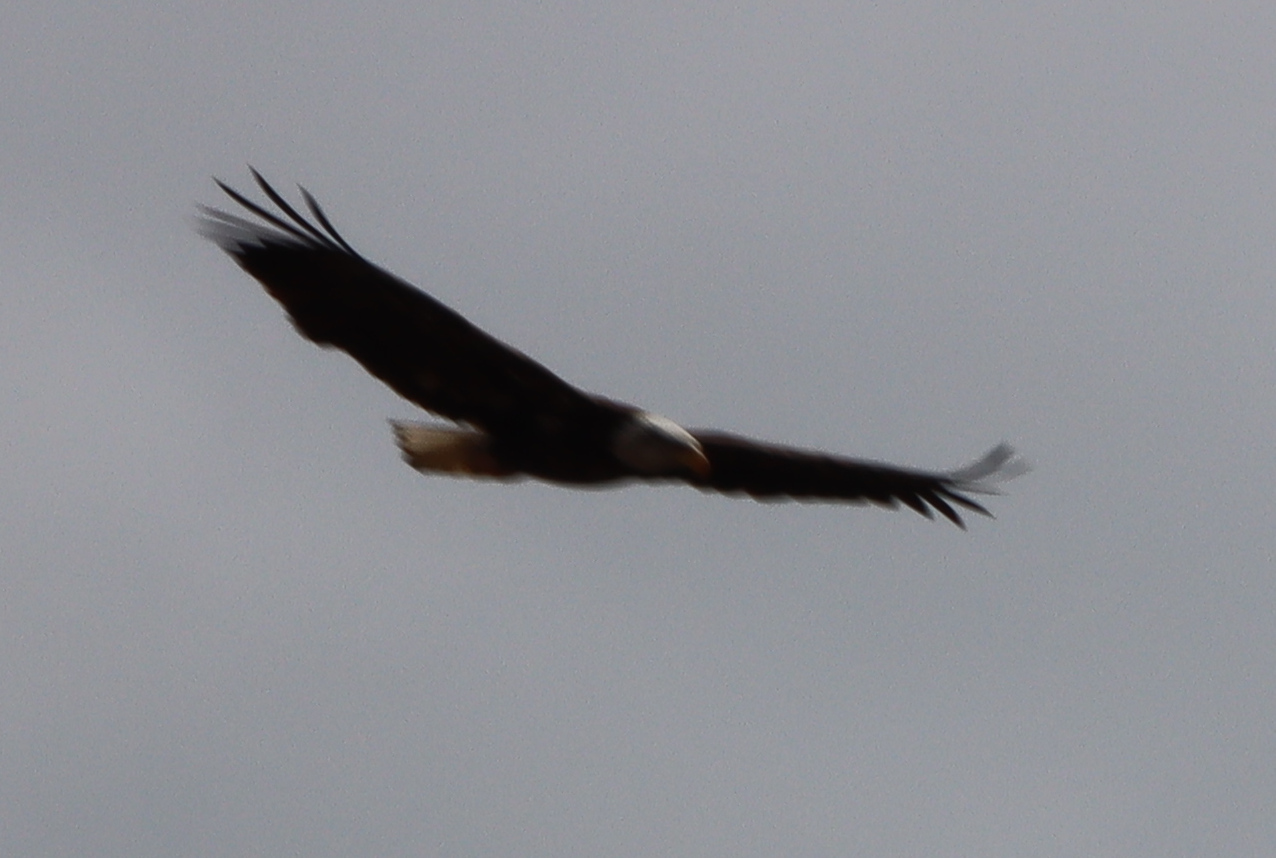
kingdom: Animalia
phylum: Chordata
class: Aves
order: Accipitriformes
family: Accipitridae
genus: Haliaeetus
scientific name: Haliaeetus leucocephalus
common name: Bald eagle
